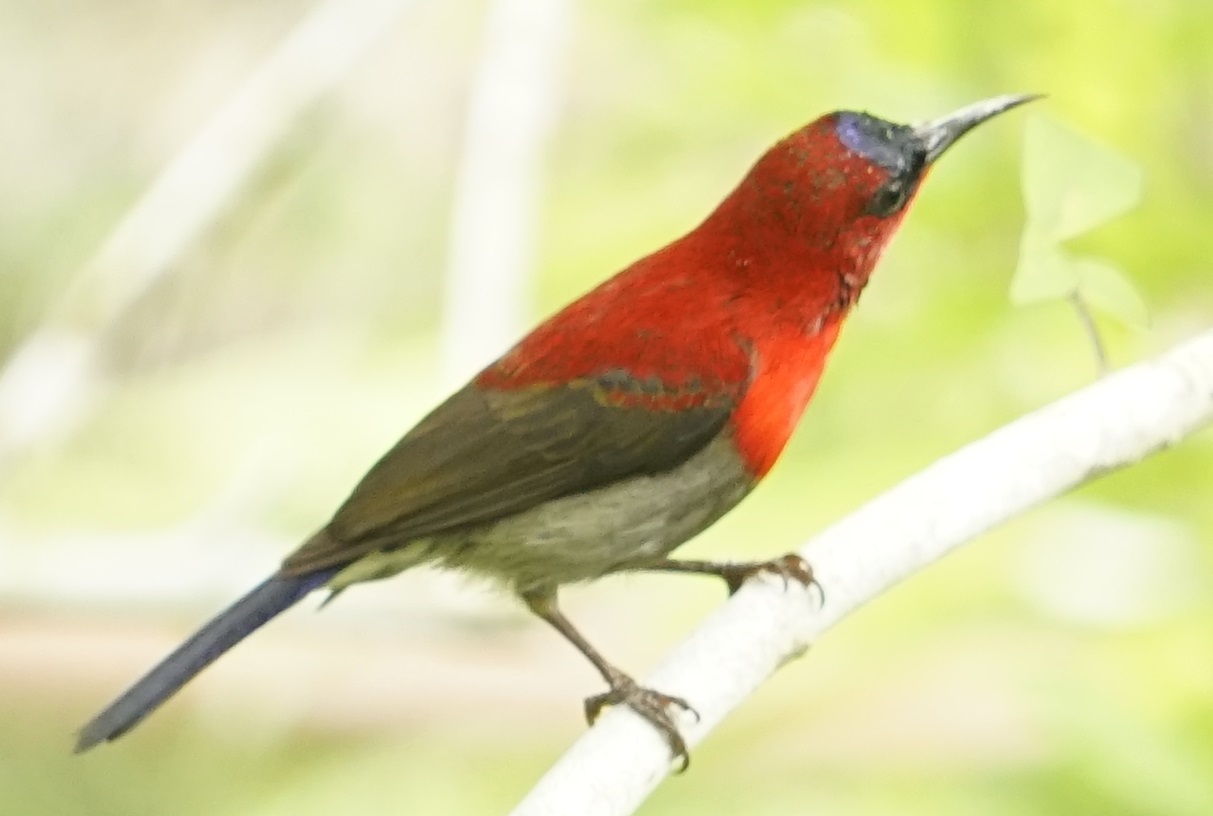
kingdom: Animalia
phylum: Chordata
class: Aves
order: Passeriformes
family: Nectariniidae
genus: Aethopyga
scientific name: Aethopyga siparaja
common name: Crimson sunbird
